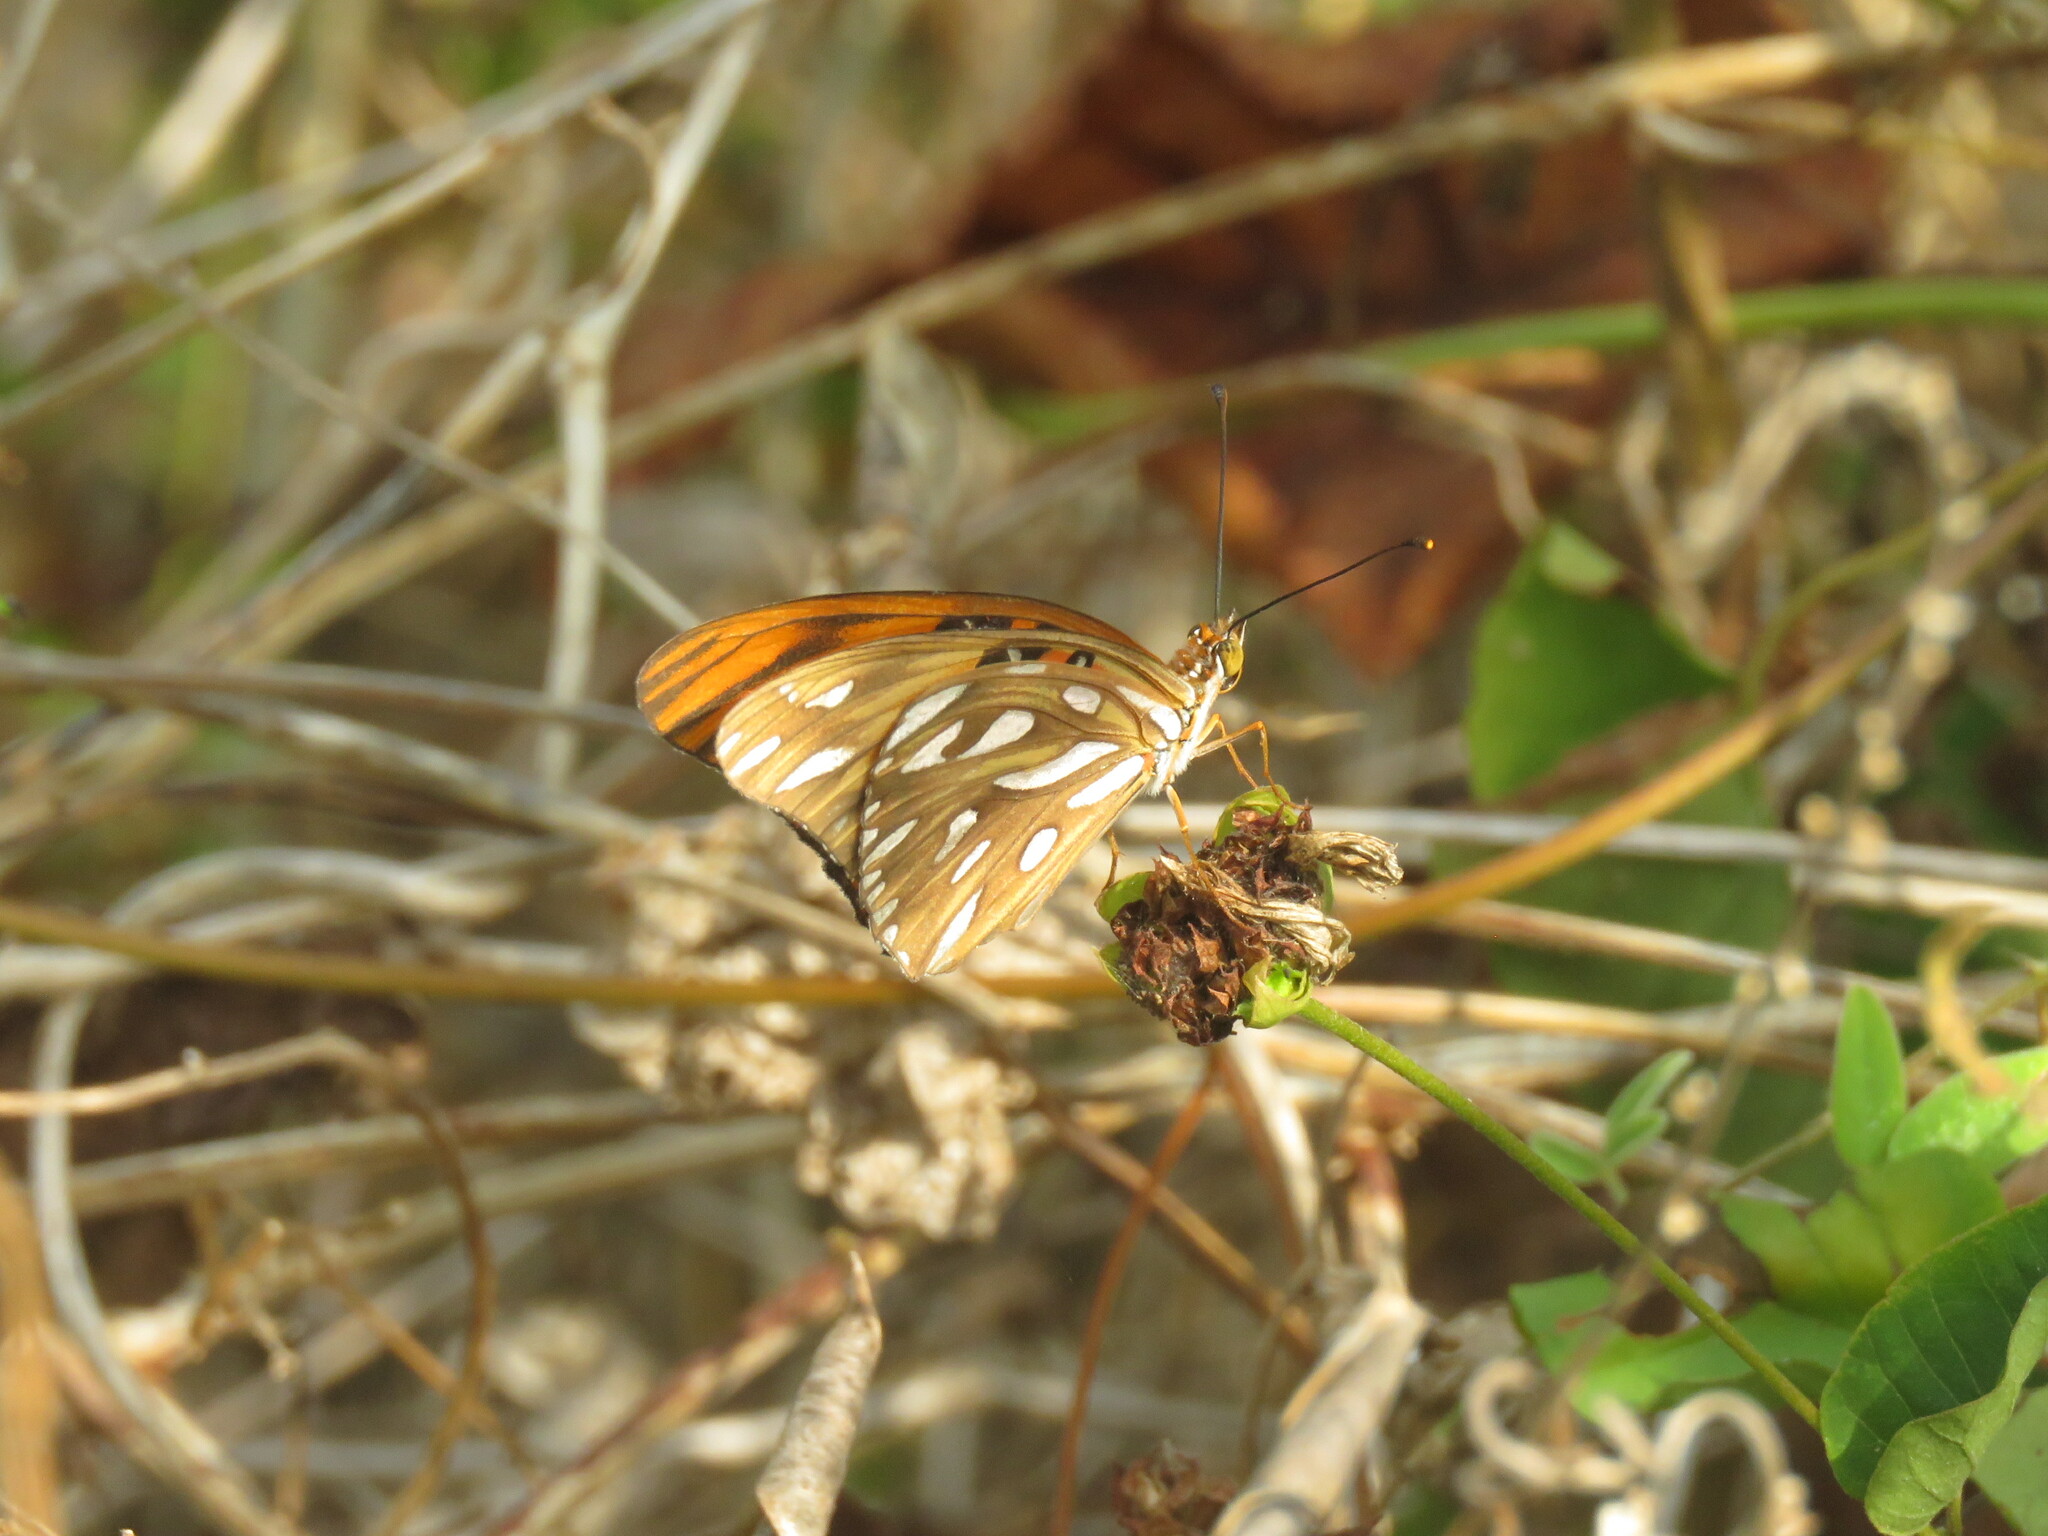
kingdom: Animalia
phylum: Arthropoda
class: Insecta
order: Lepidoptera
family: Nymphalidae
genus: Dione
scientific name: Dione vanillae
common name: Gulf fritillary
